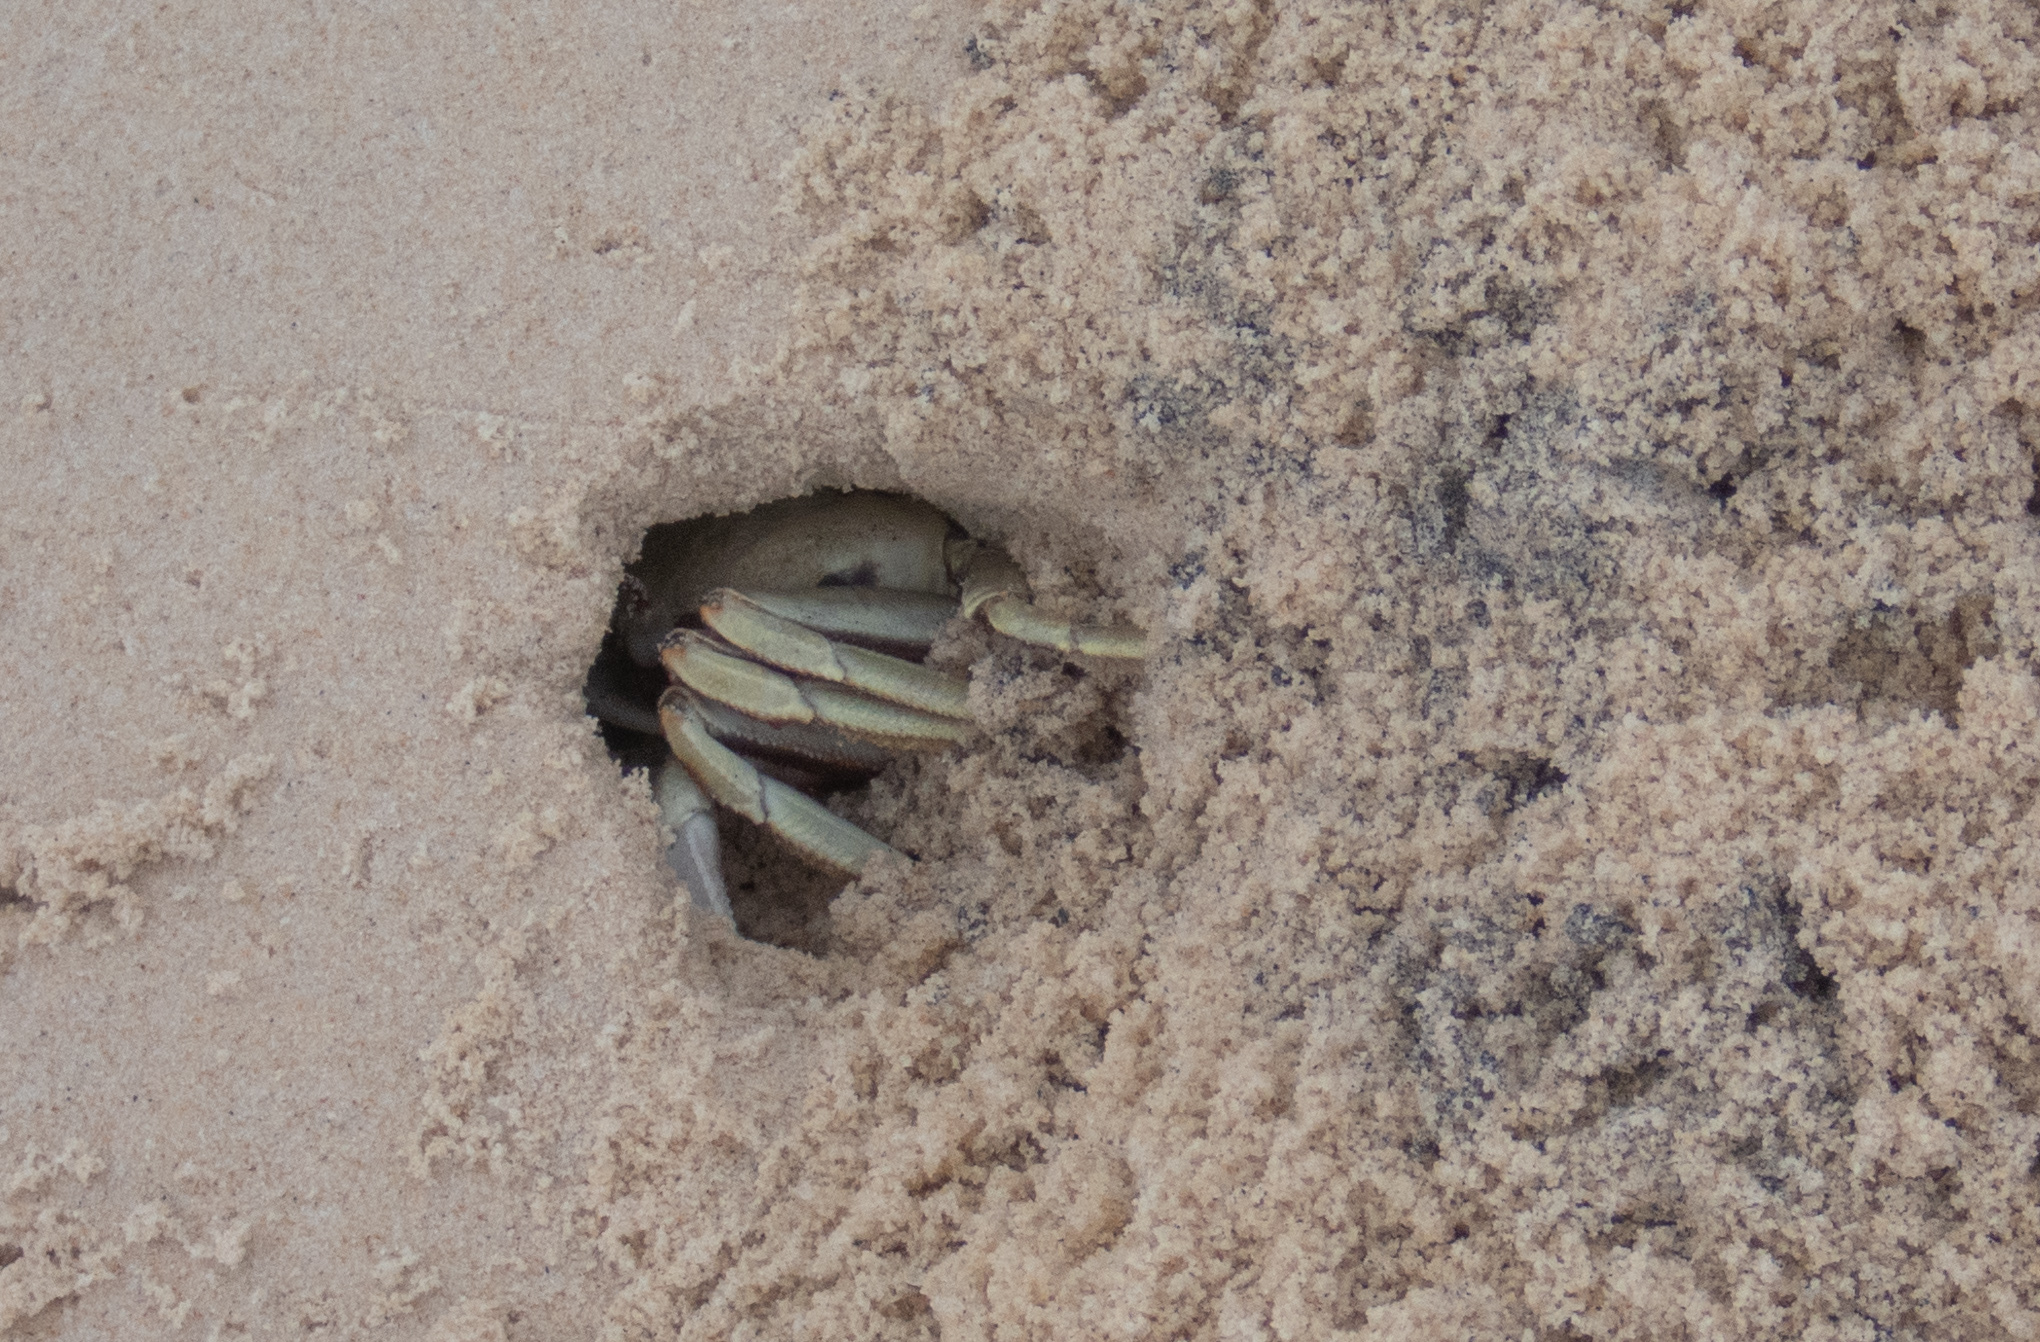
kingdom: Animalia
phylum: Arthropoda
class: Malacostraca
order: Decapoda
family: Ocypodidae
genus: Ocypode
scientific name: Ocypode ceratophthalmus
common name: Indo-pacific ghost crab
